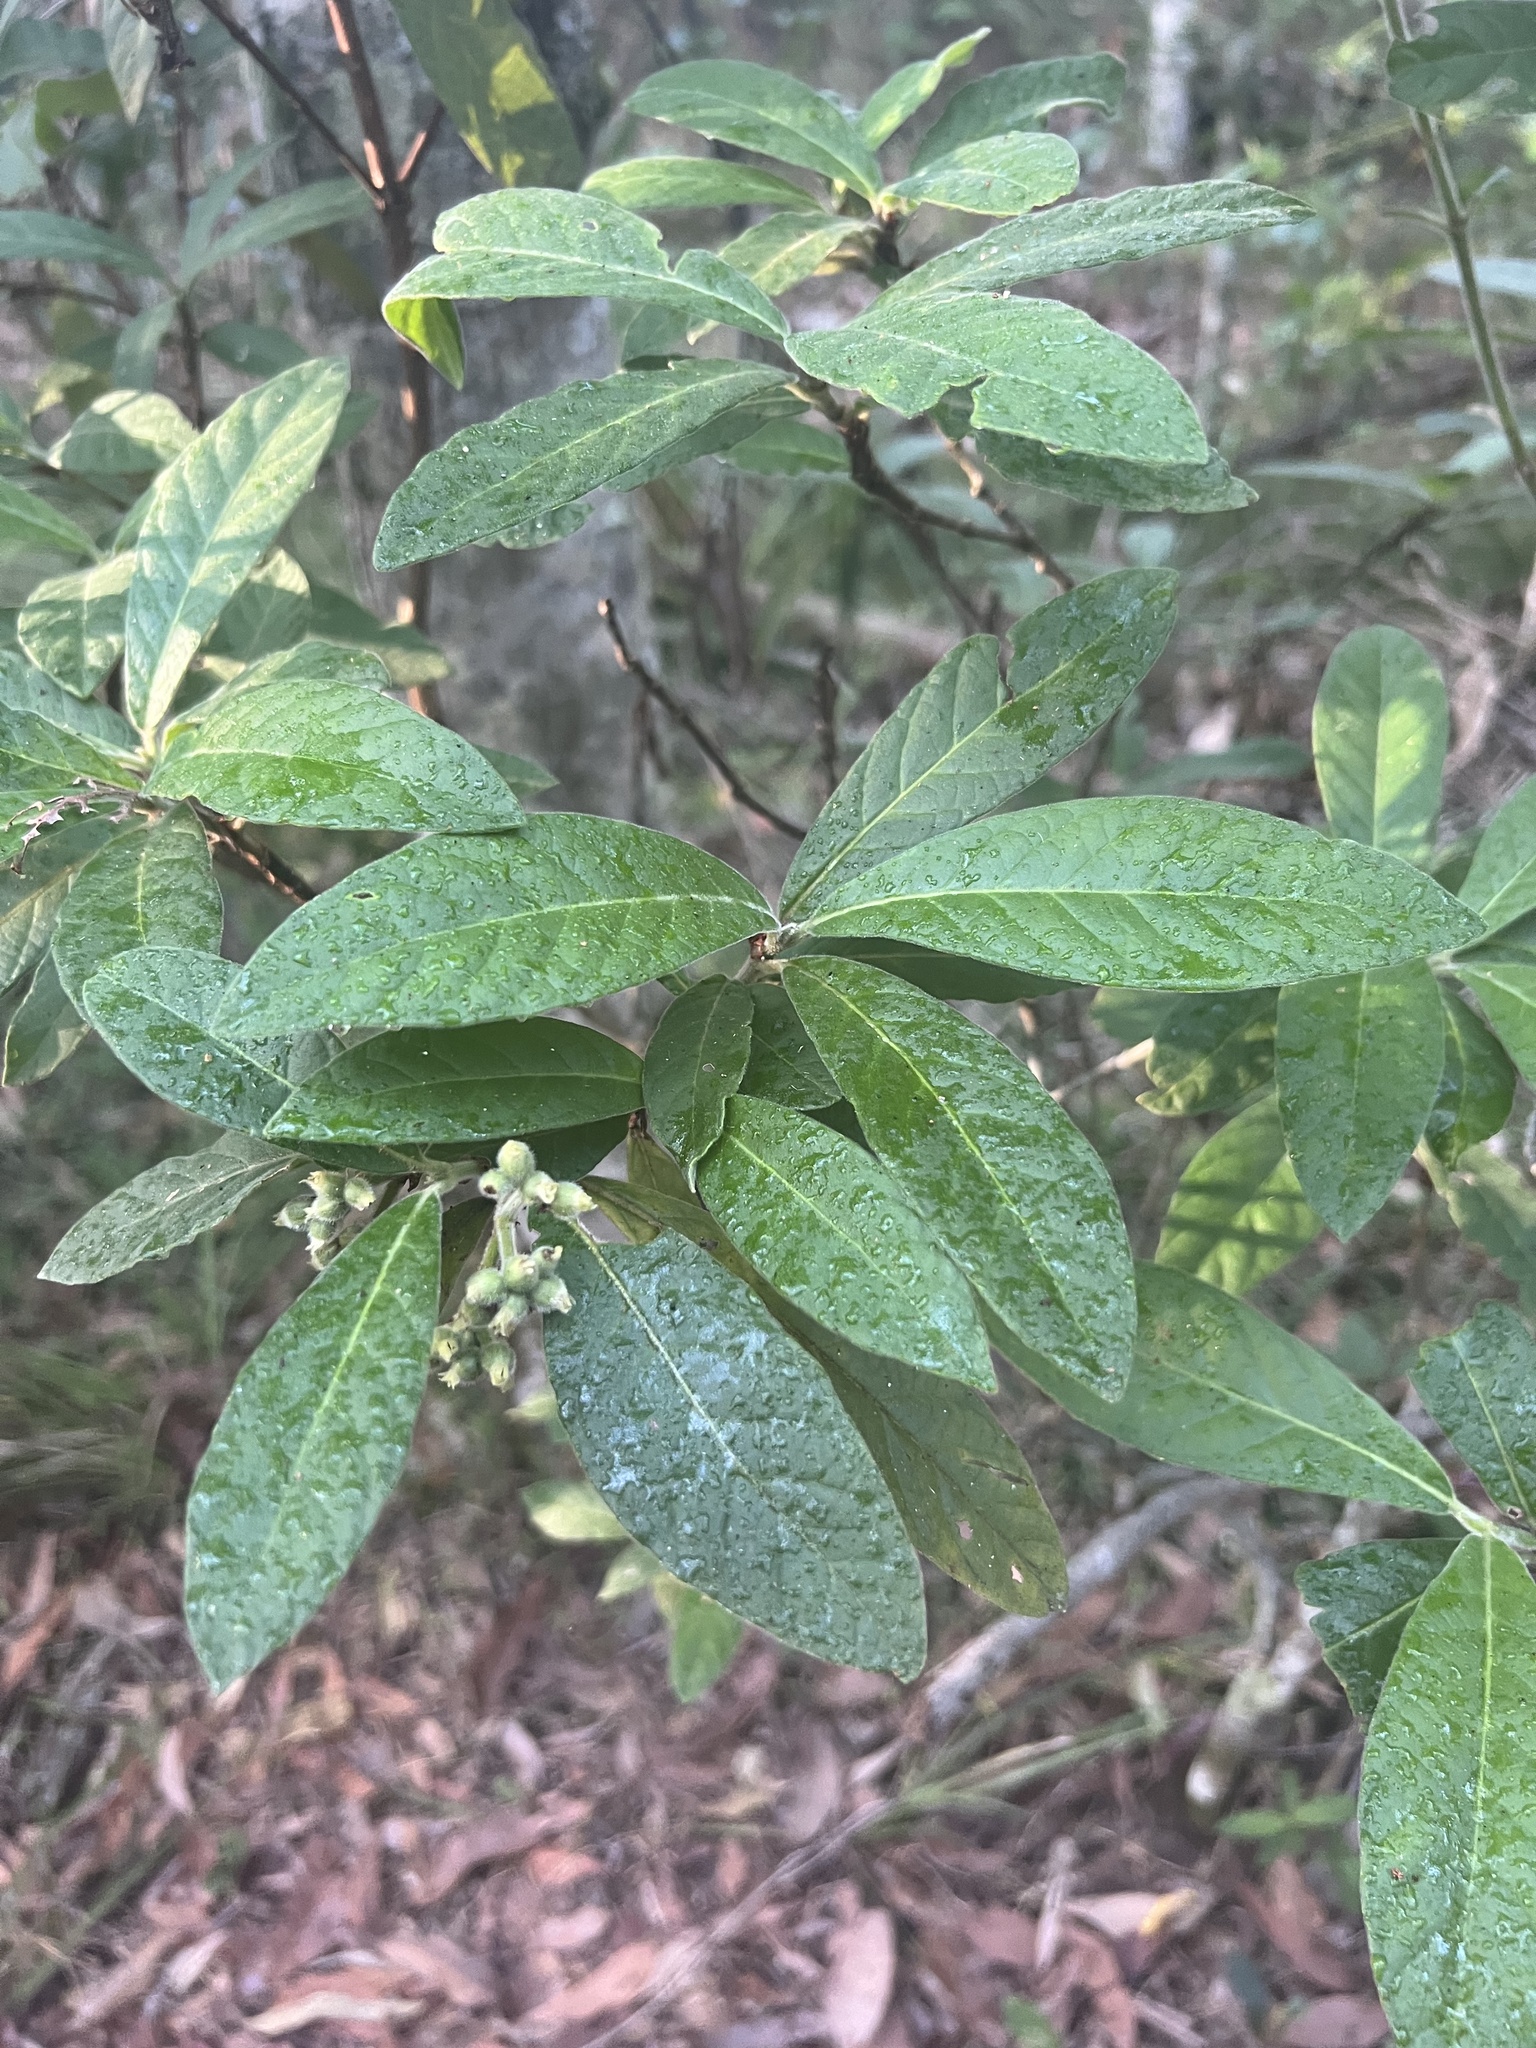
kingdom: Plantae
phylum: Tracheophyta
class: Magnoliopsida
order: Gentianales
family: Rubiaceae
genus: Psychotria
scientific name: Psychotria loniceroides
